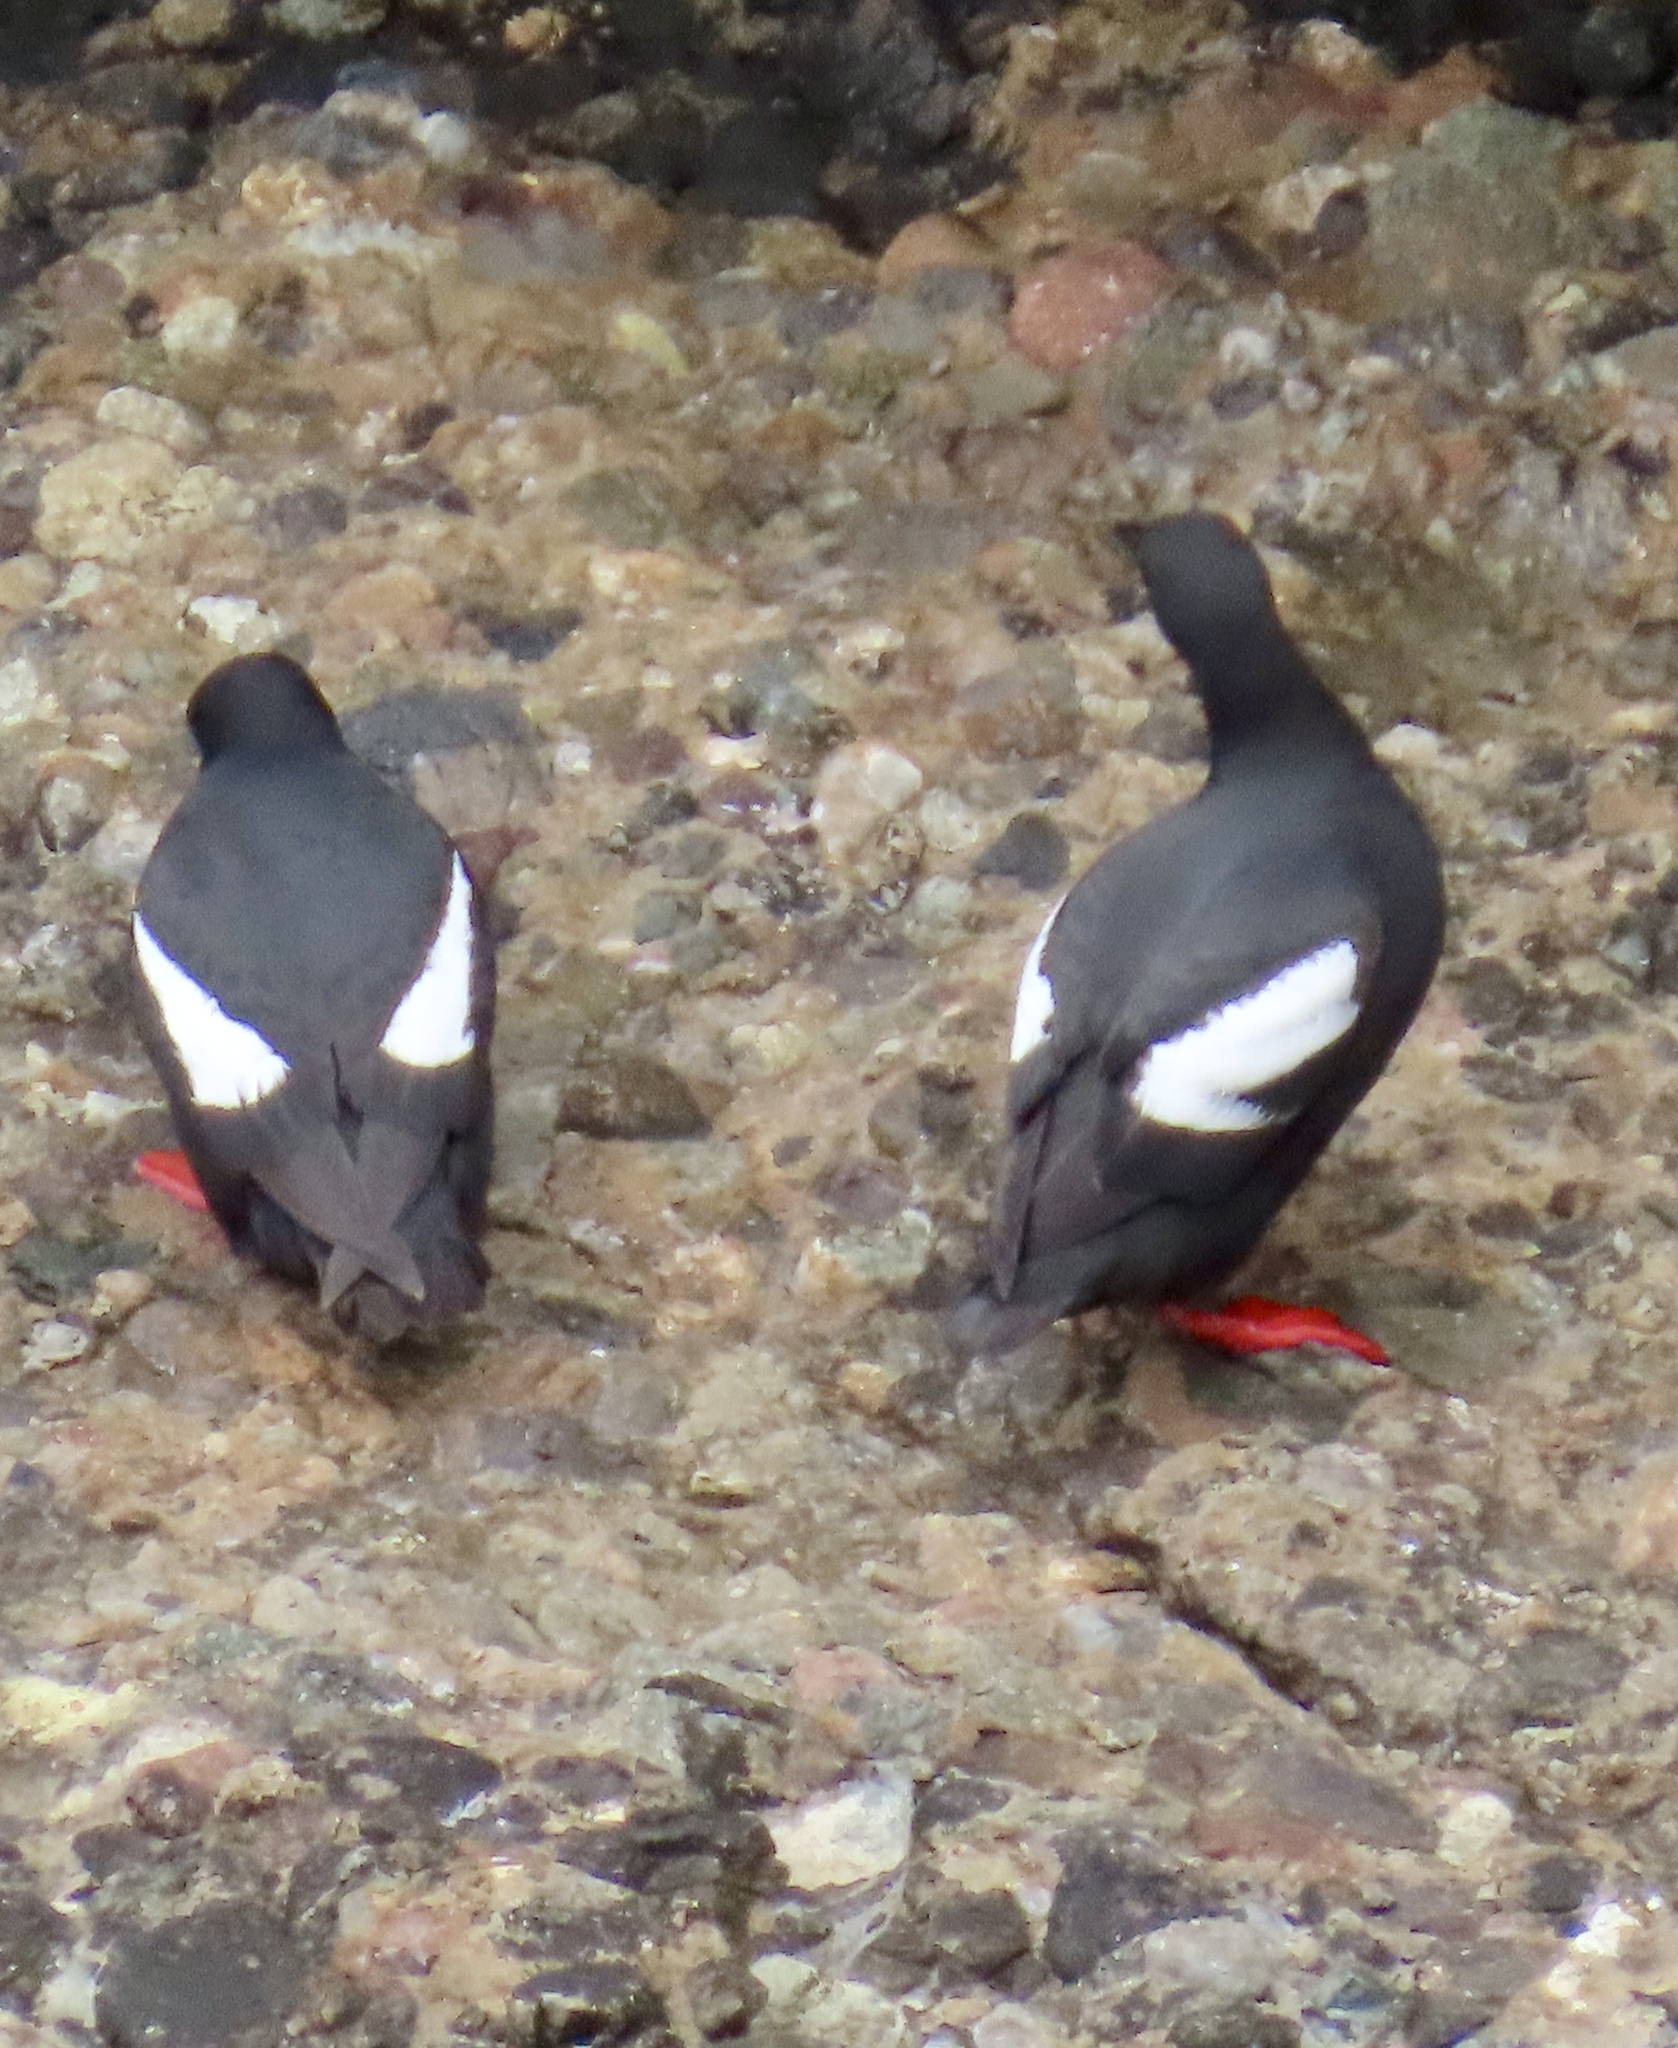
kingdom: Animalia
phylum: Chordata
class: Aves
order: Charadriiformes
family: Alcidae
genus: Cepphus
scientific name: Cepphus columba
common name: Pigeon guillemot
